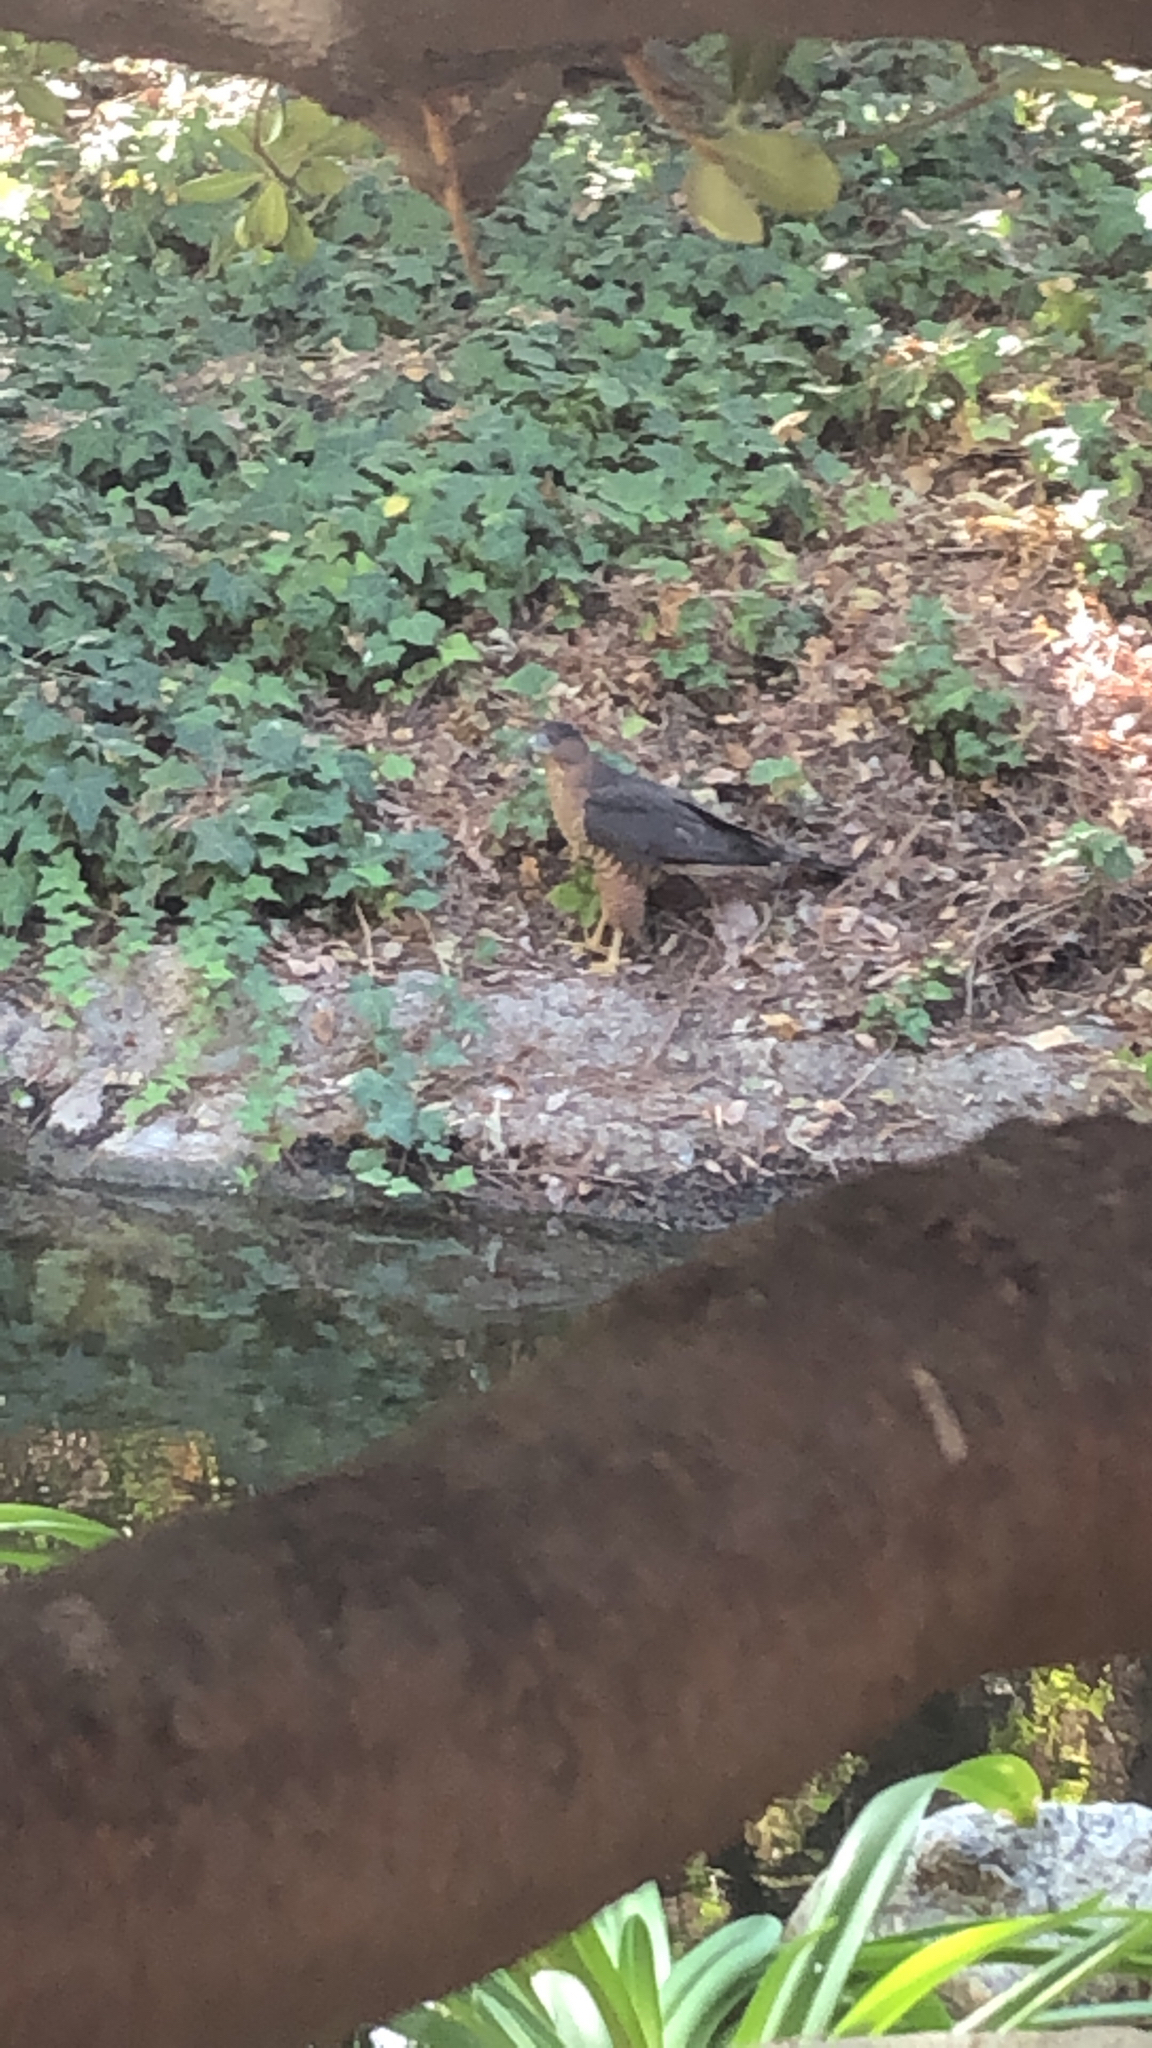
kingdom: Animalia
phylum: Chordata
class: Aves
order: Accipitriformes
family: Accipitridae
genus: Accipiter
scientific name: Accipiter cooperii
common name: Cooper's hawk
